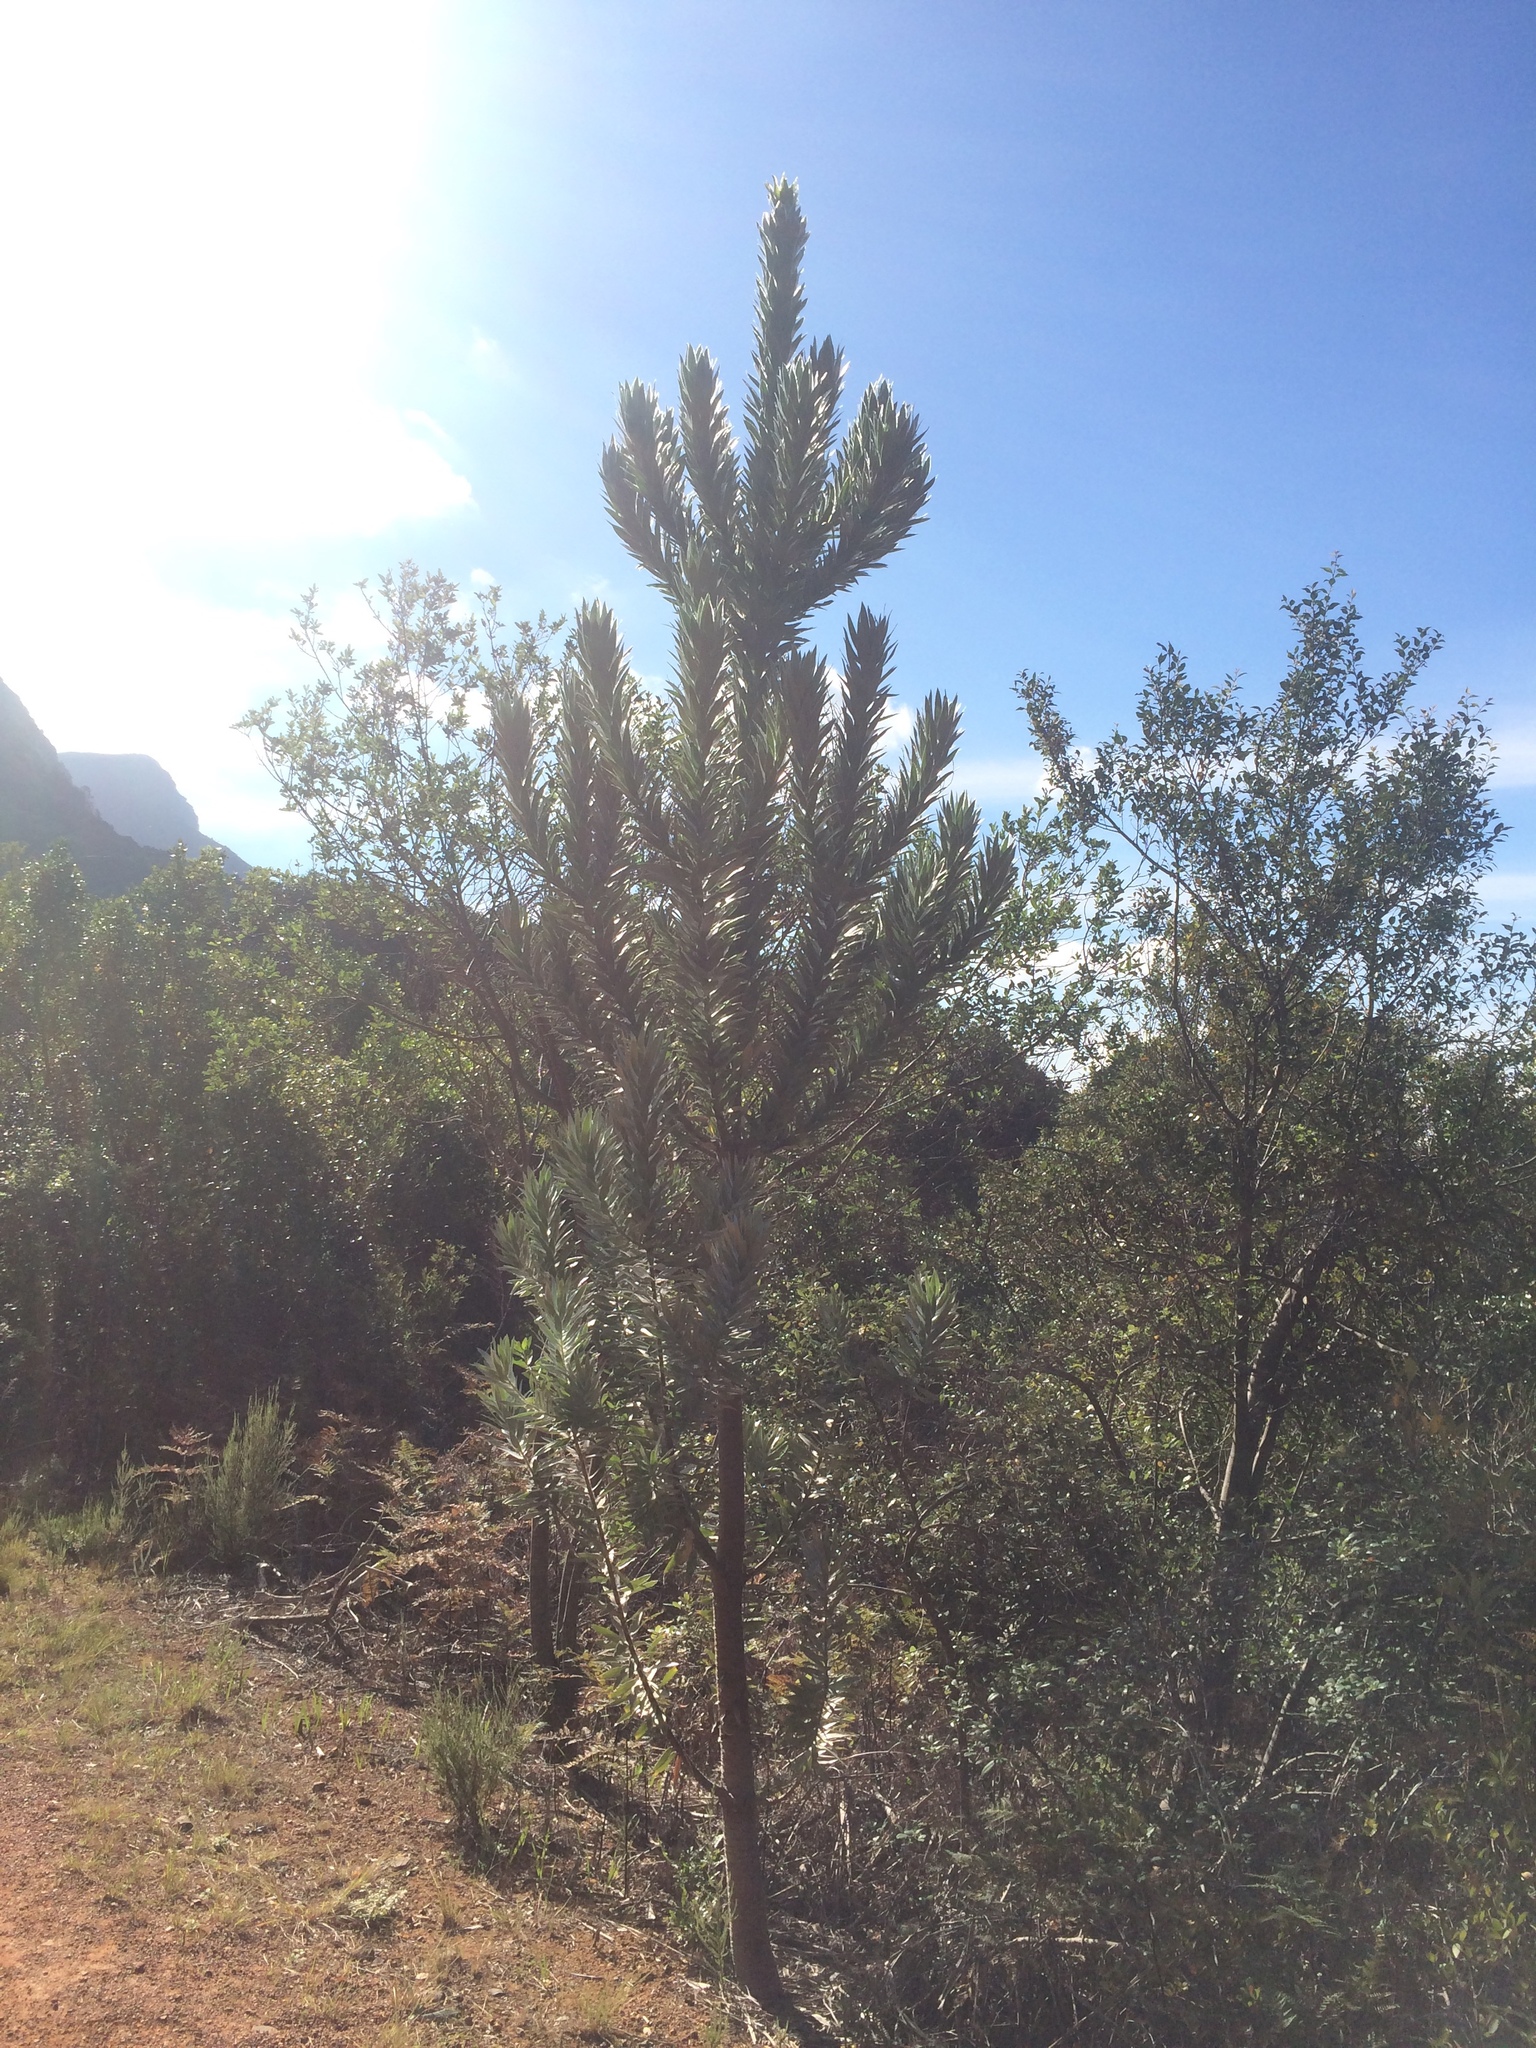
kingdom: Plantae
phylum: Tracheophyta
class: Magnoliopsida
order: Proteales
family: Proteaceae
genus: Leucadendron
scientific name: Leucadendron argenteum
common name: Cape silver tree
